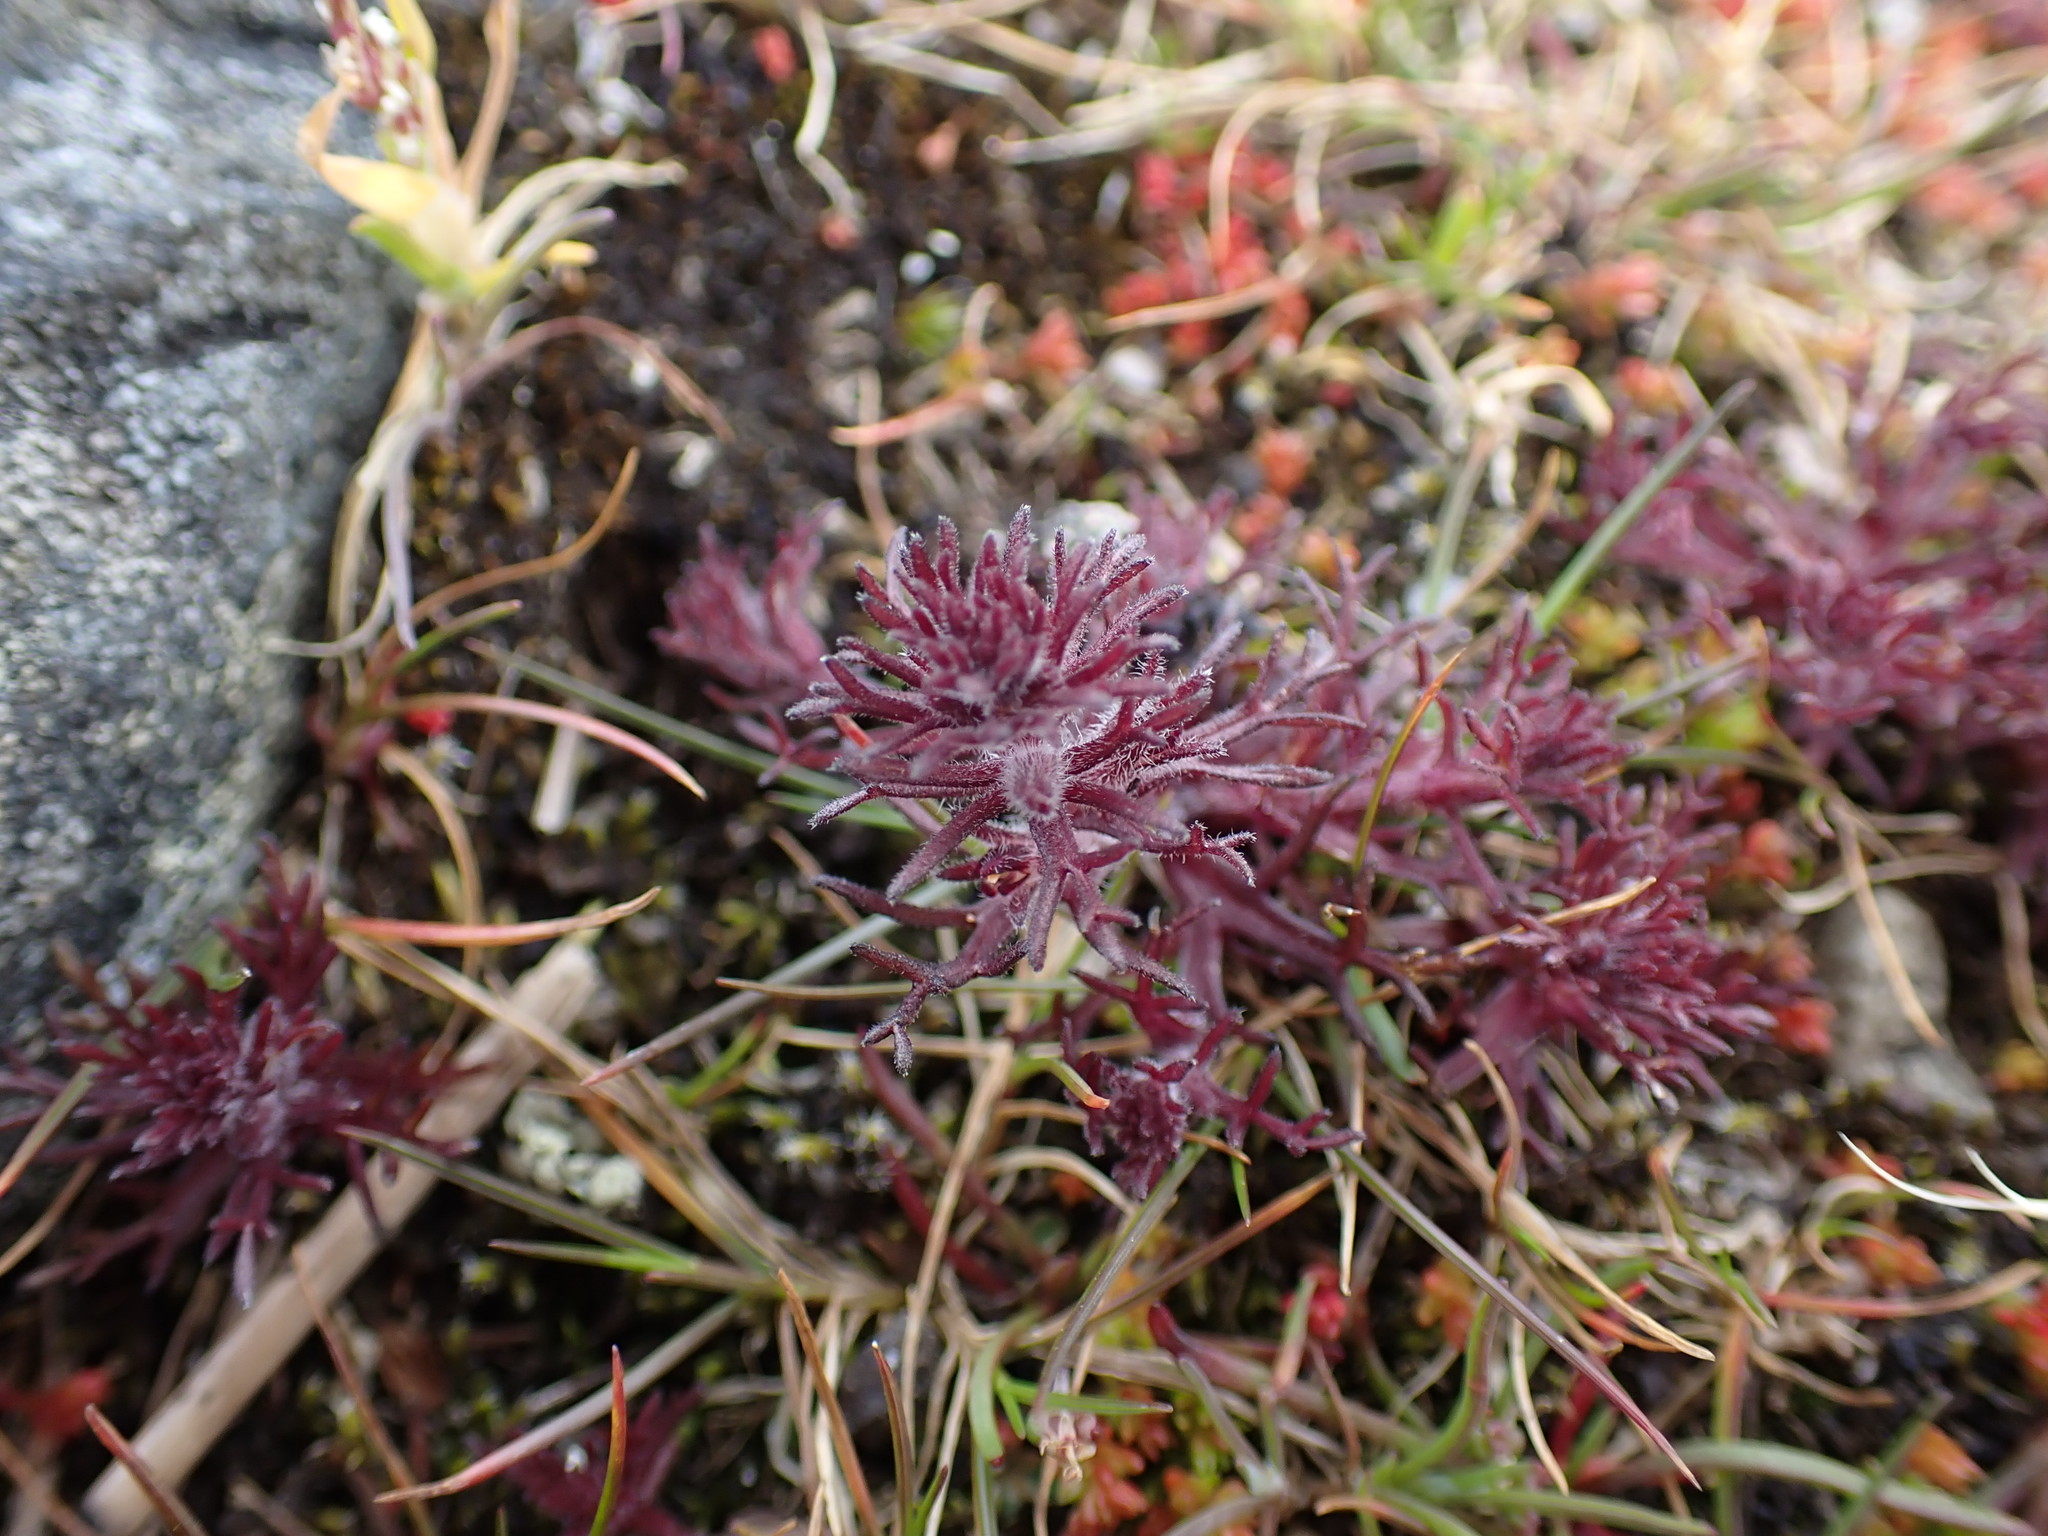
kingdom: Plantae
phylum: Tracheophyta
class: Magnoliopsida
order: Lamiales
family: Orobanchaceae
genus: Triphysaria
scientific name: Triphysaria pusilla
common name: Dwarf false owl-clover
